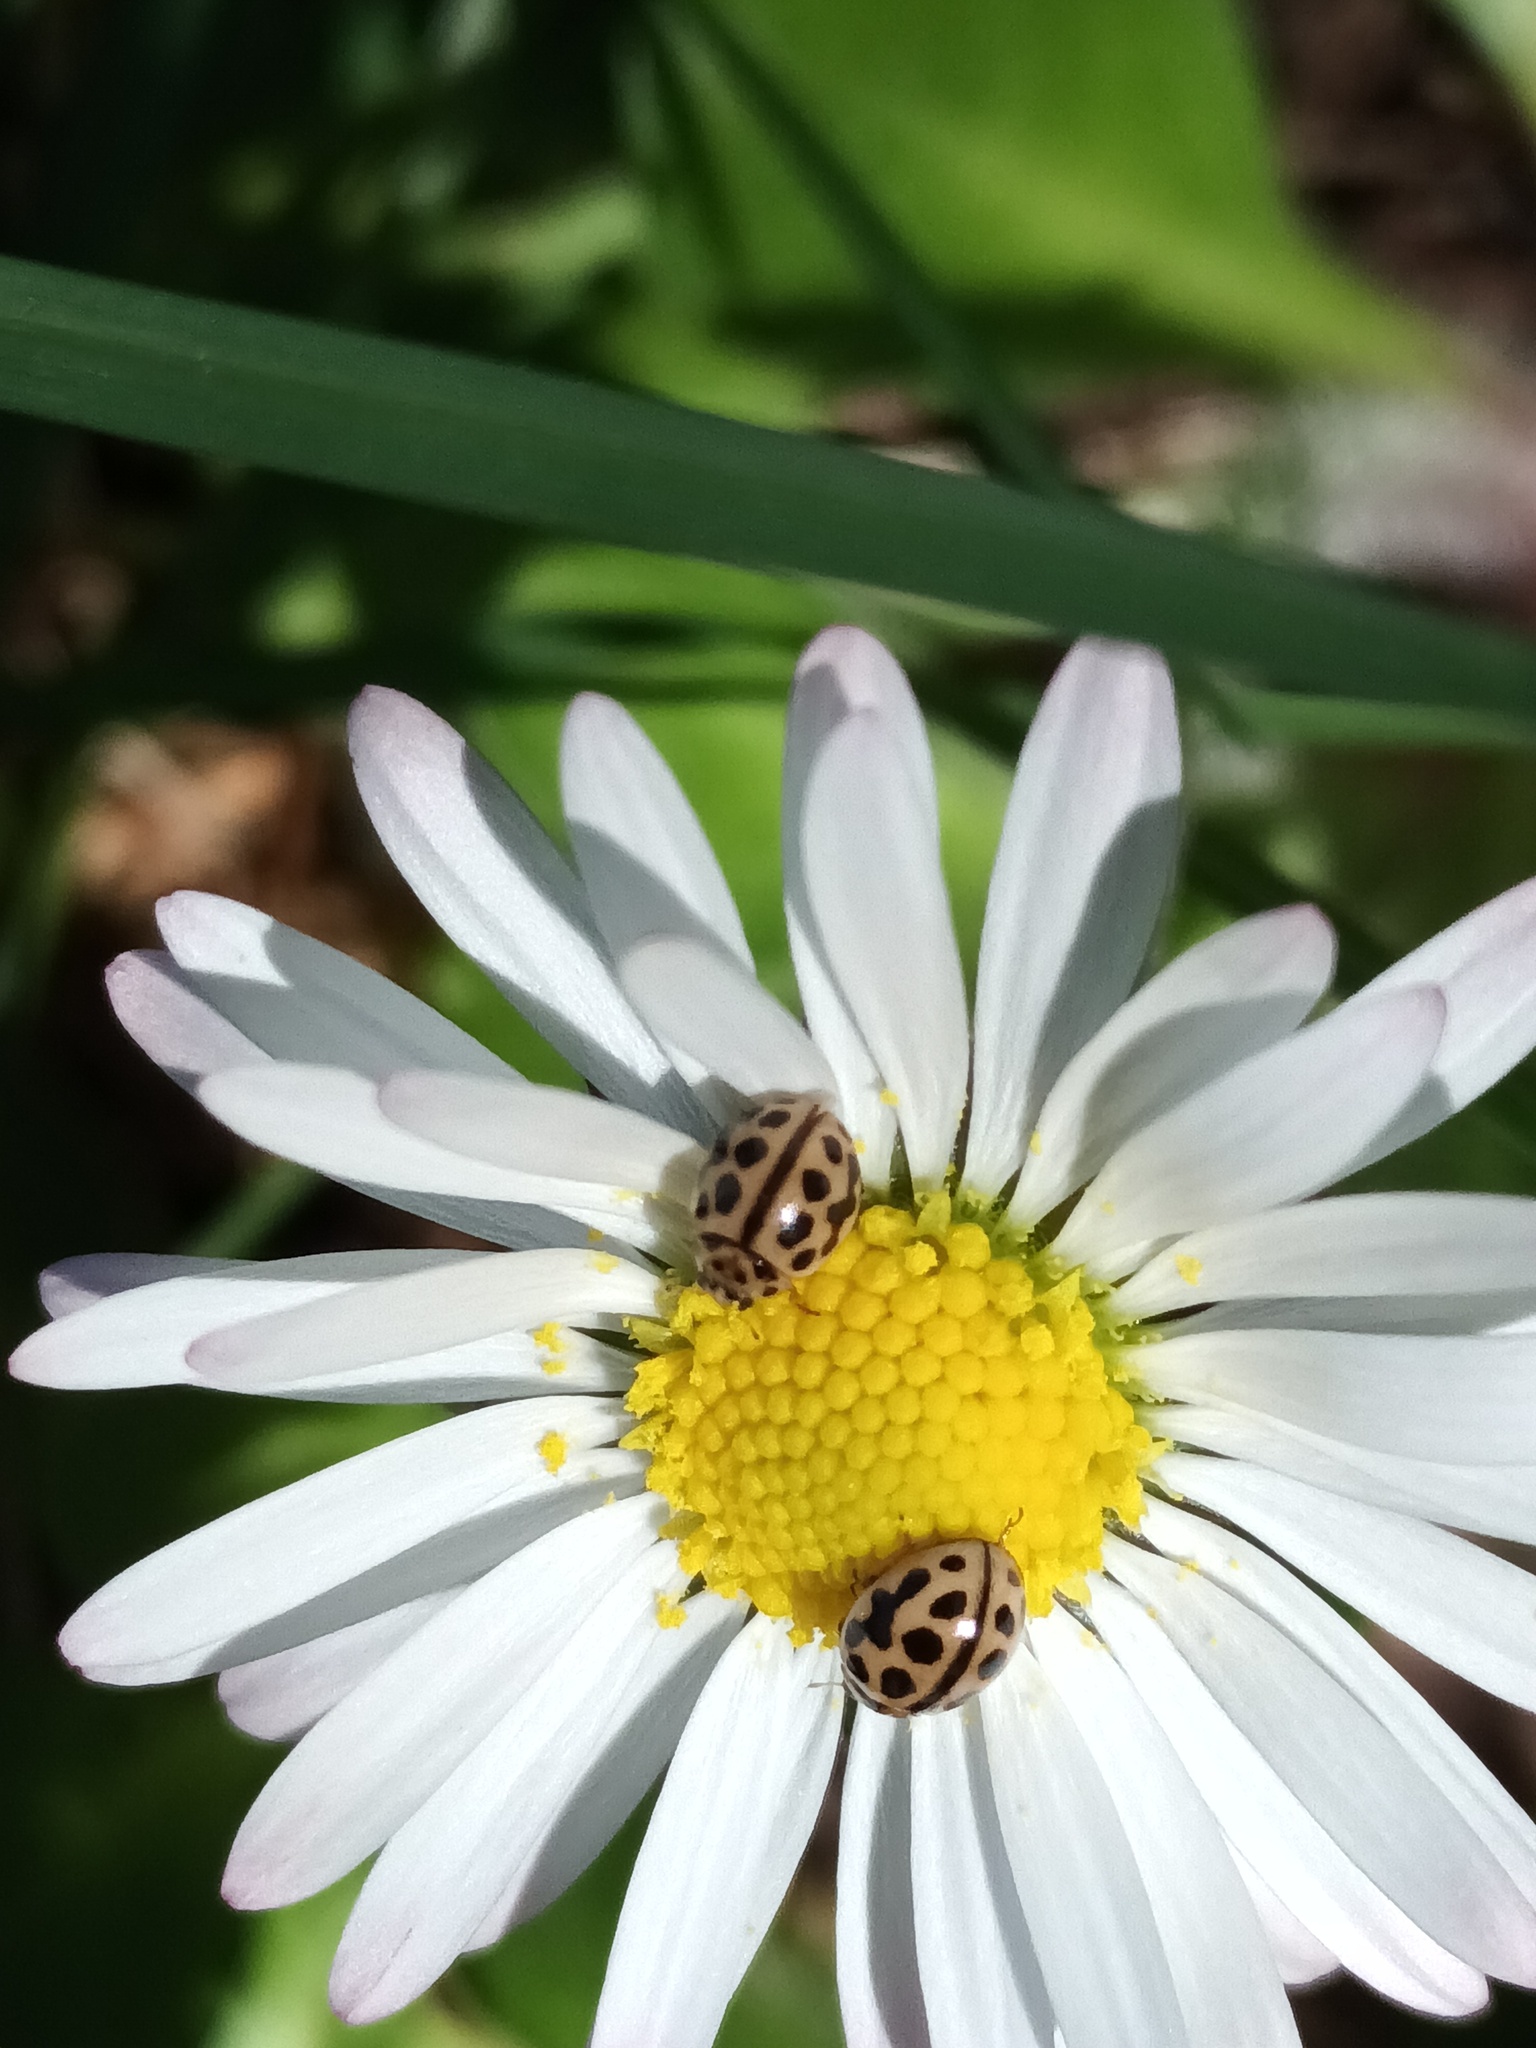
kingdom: Animalia
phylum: Arthropoda
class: Insecta
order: Coleoptera
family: Coccinellidae
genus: Tytthaspis
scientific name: Tytthaspis sedecimpunctata
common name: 16-spot ladybird
